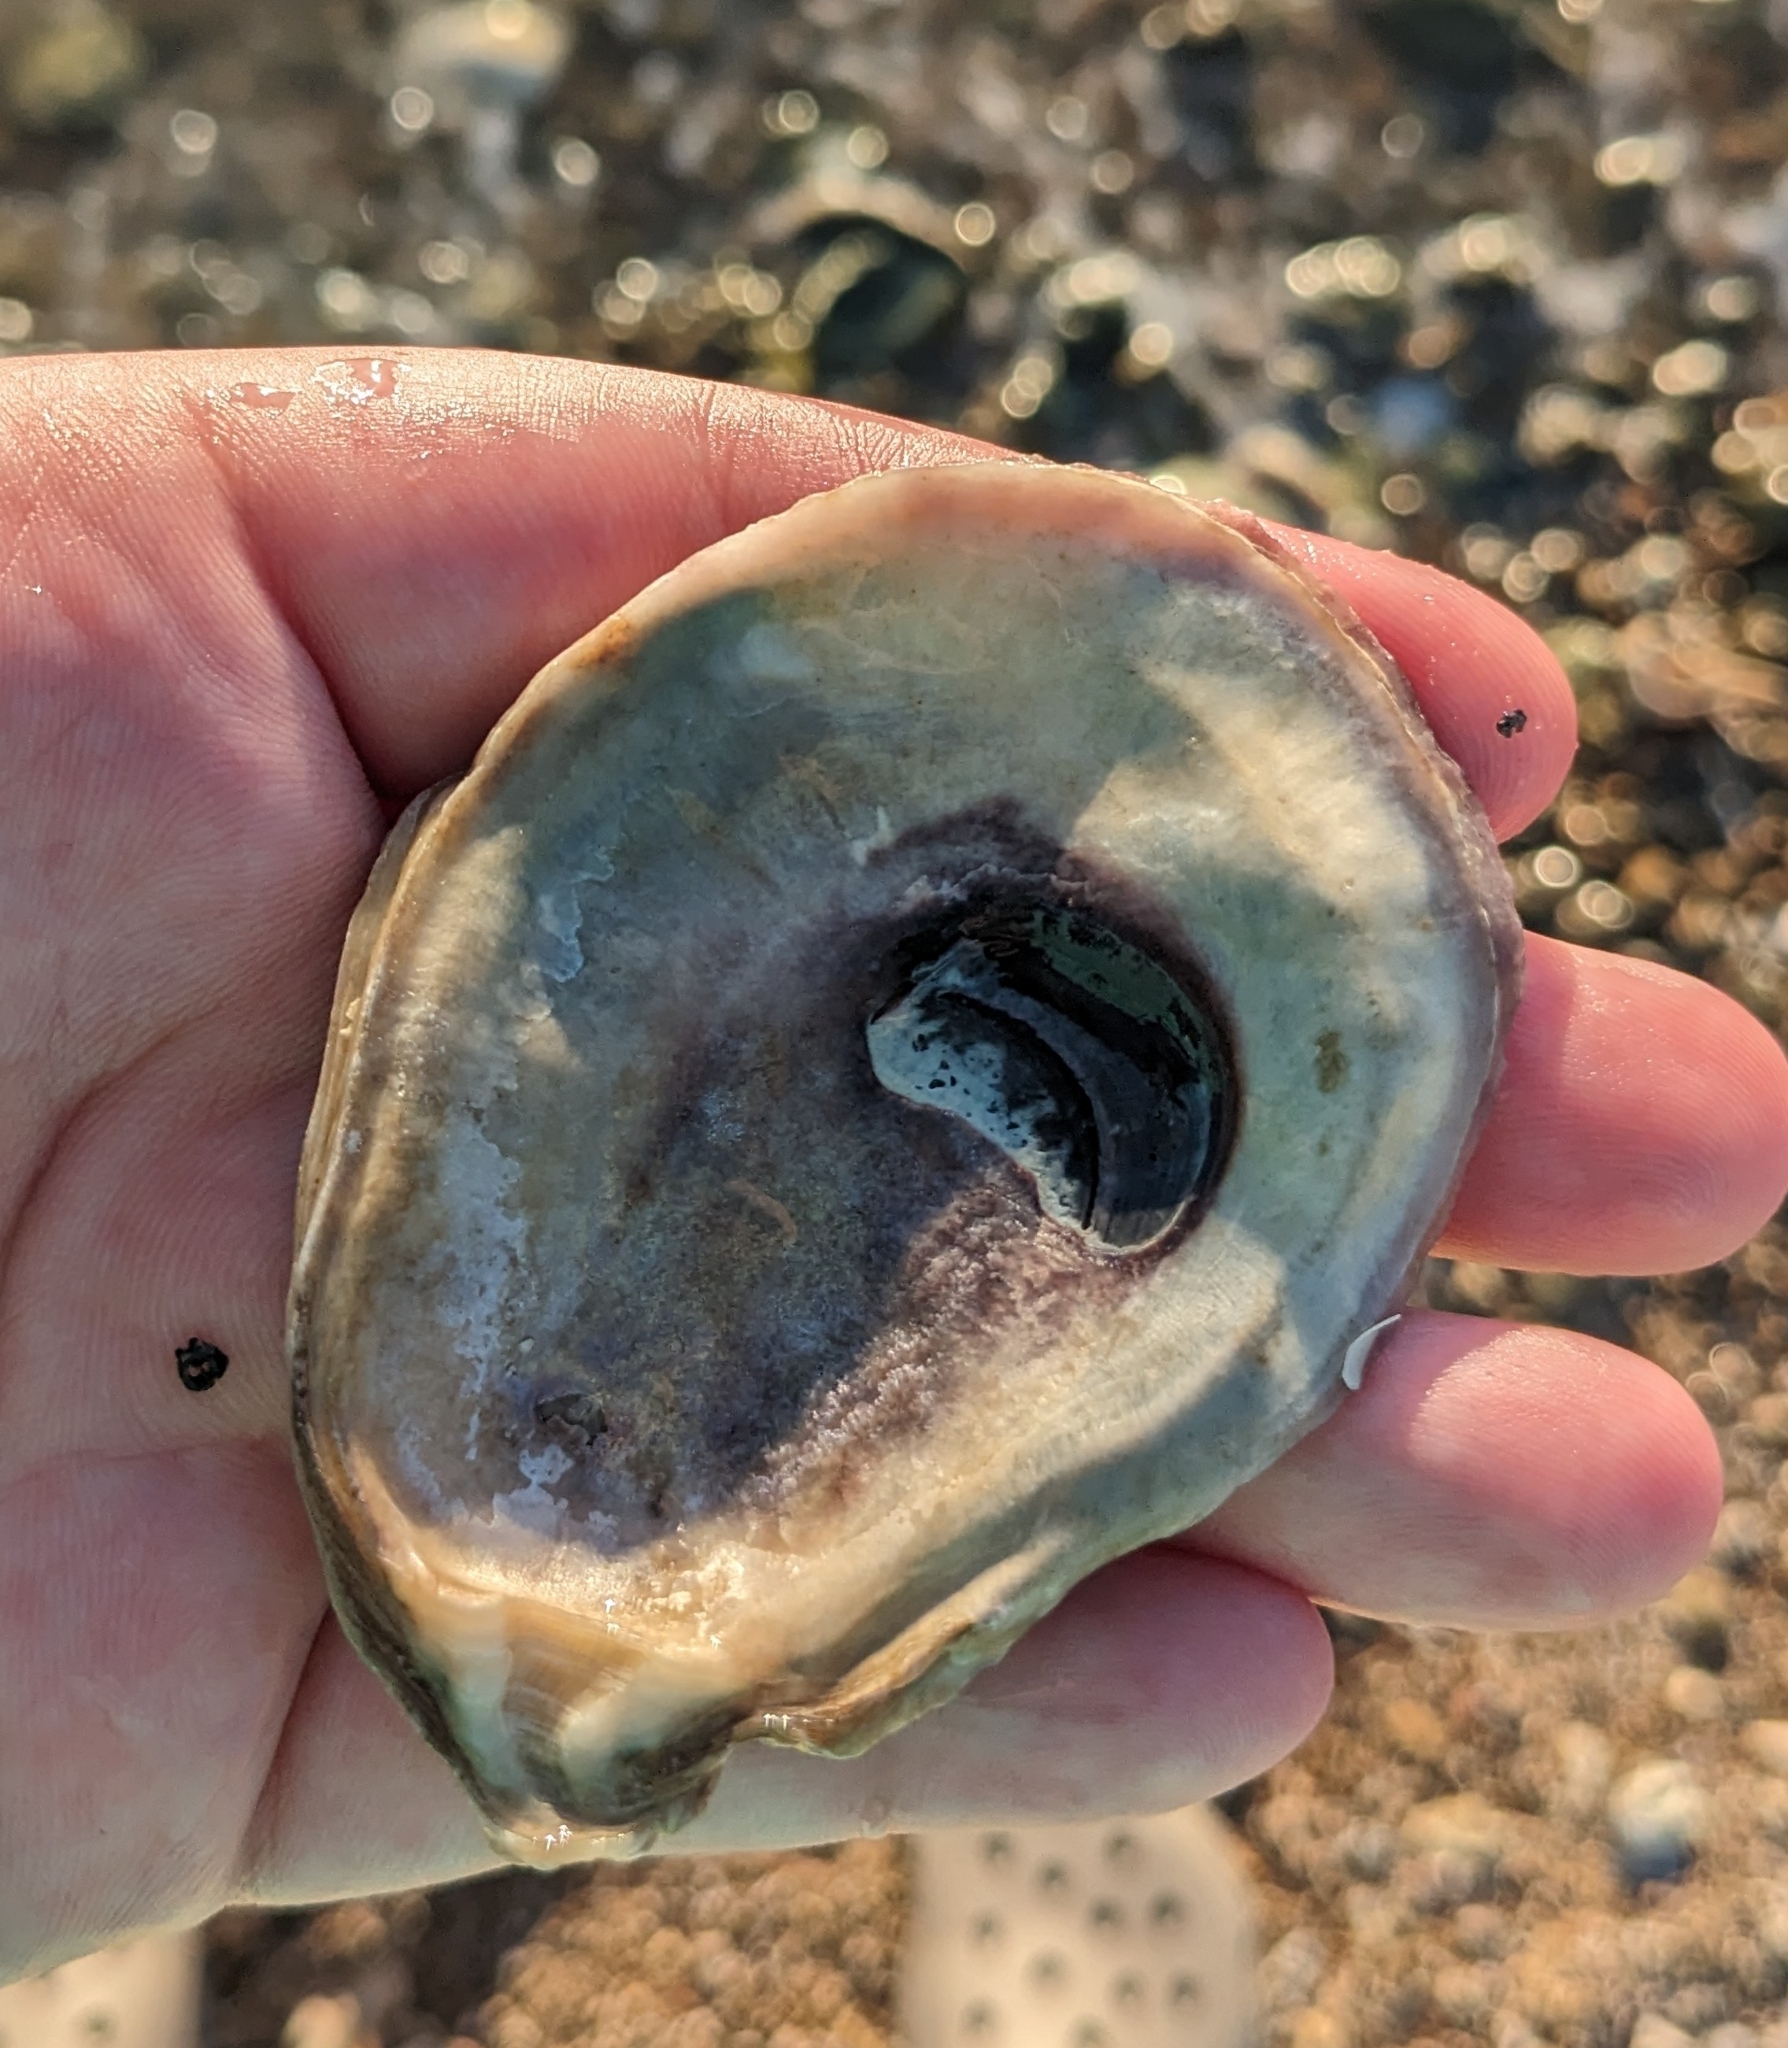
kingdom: Animalia
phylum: Mollusca
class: Bivalvia
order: Ostreida
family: Ostreidae
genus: Crassostrea
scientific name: Crassostrea virginica
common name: American oyster
